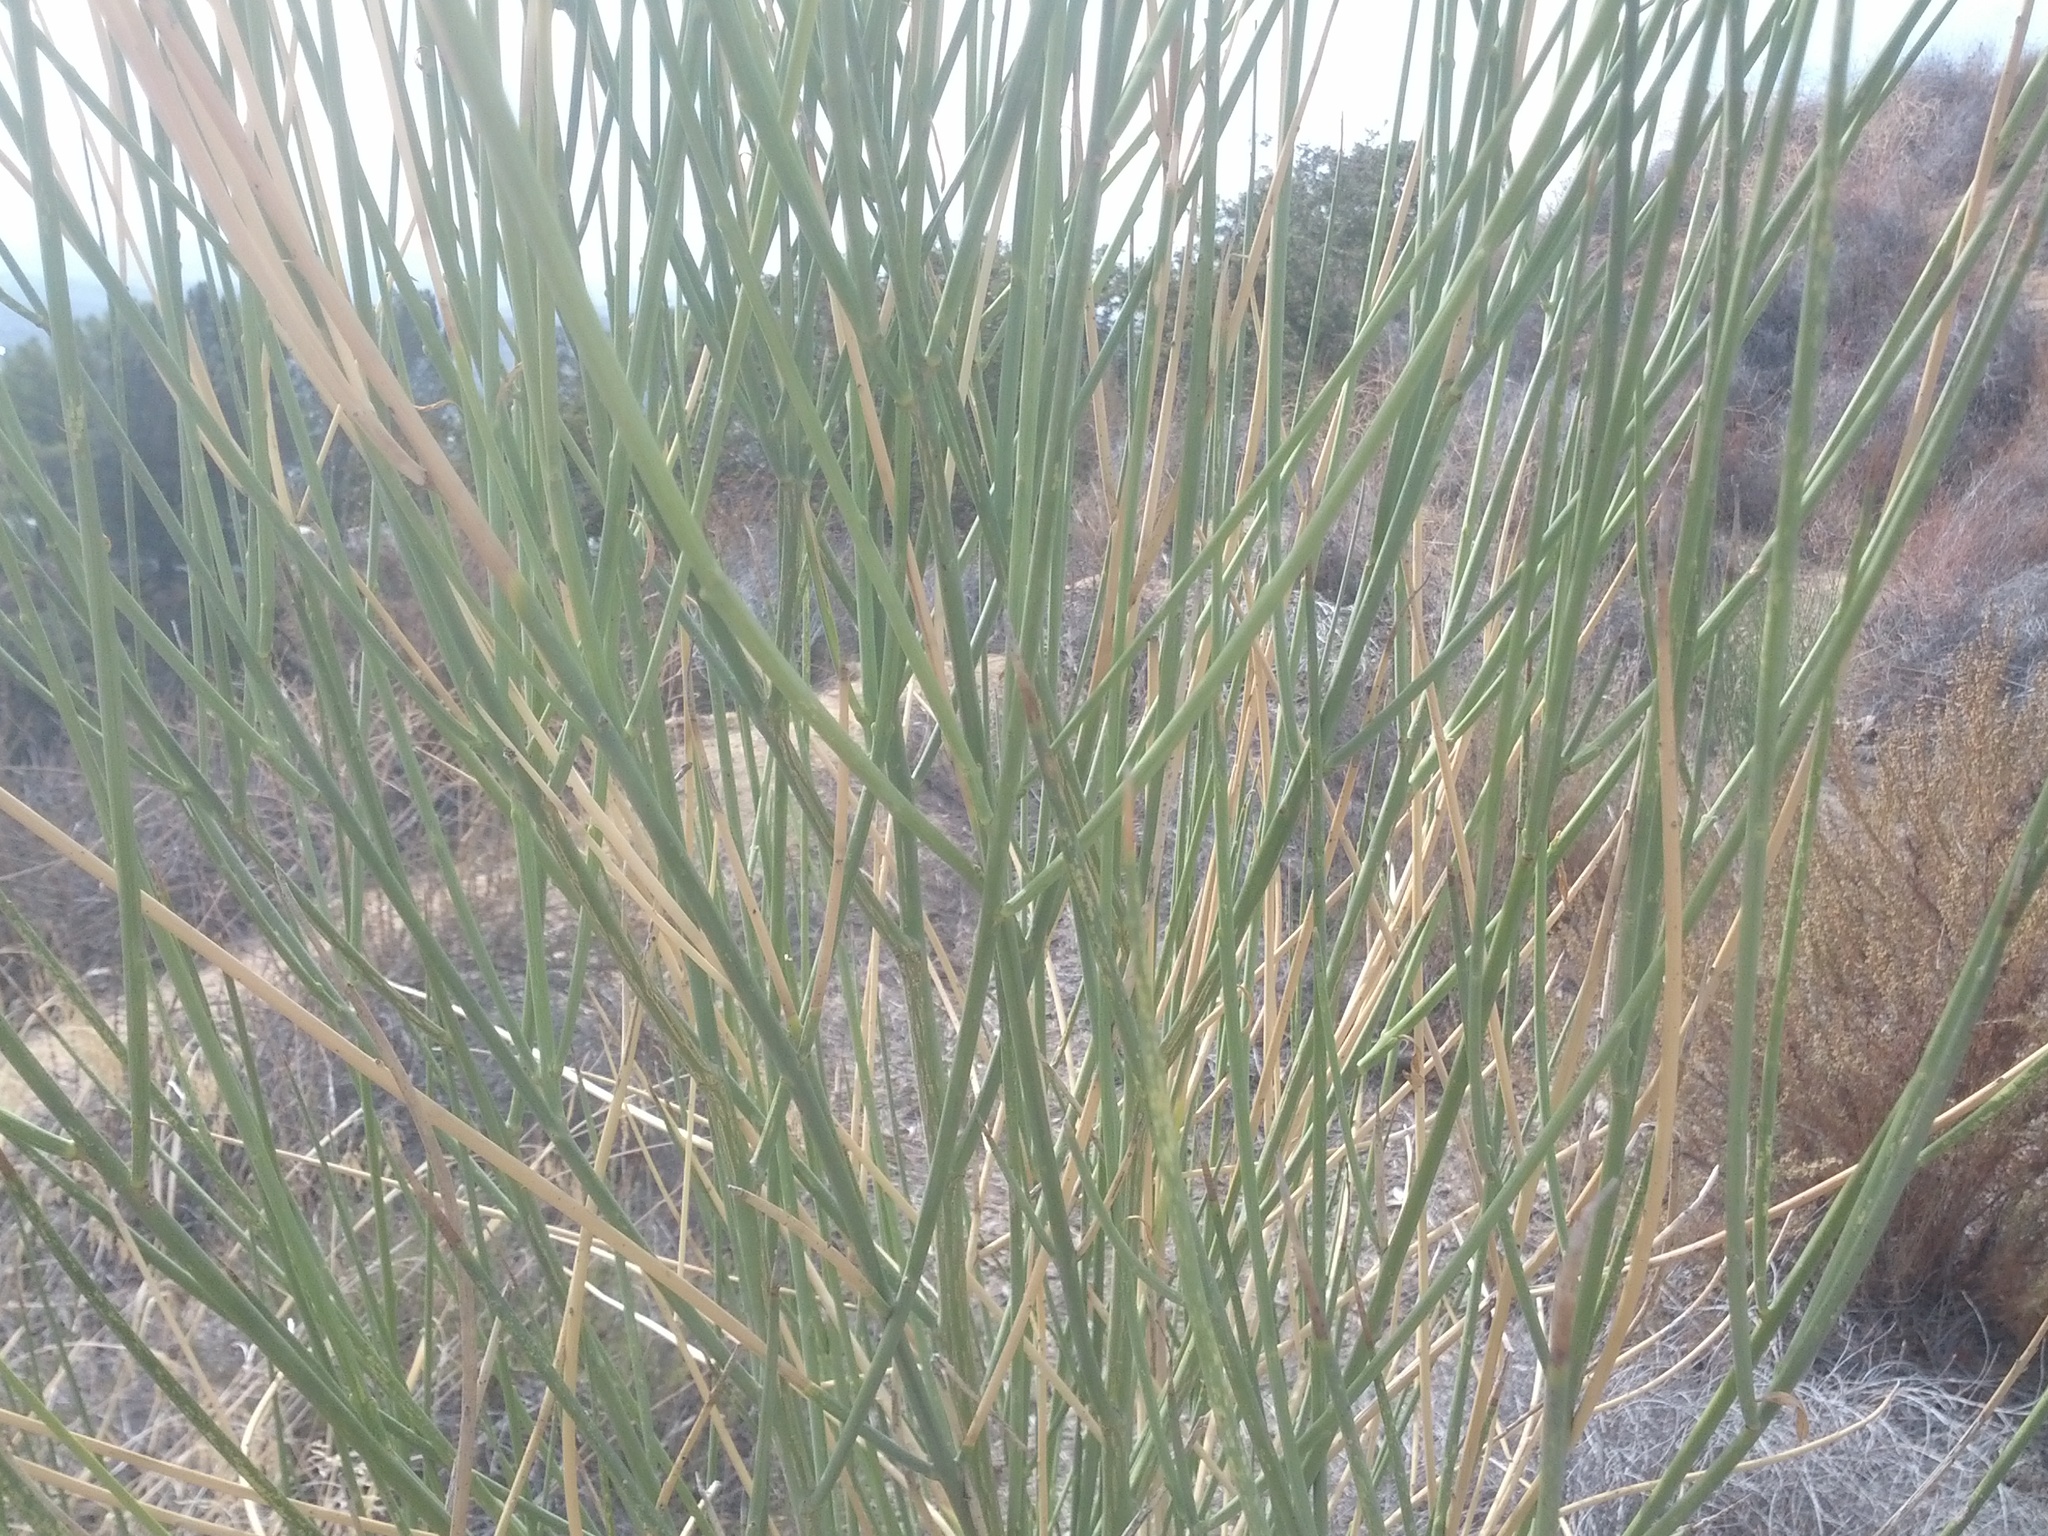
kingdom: Plantae
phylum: Tracheophyta
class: Magnoliopsida
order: Fabales
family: Fabaceae
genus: Spartium
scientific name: Spartium junceum
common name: Spanish broom
